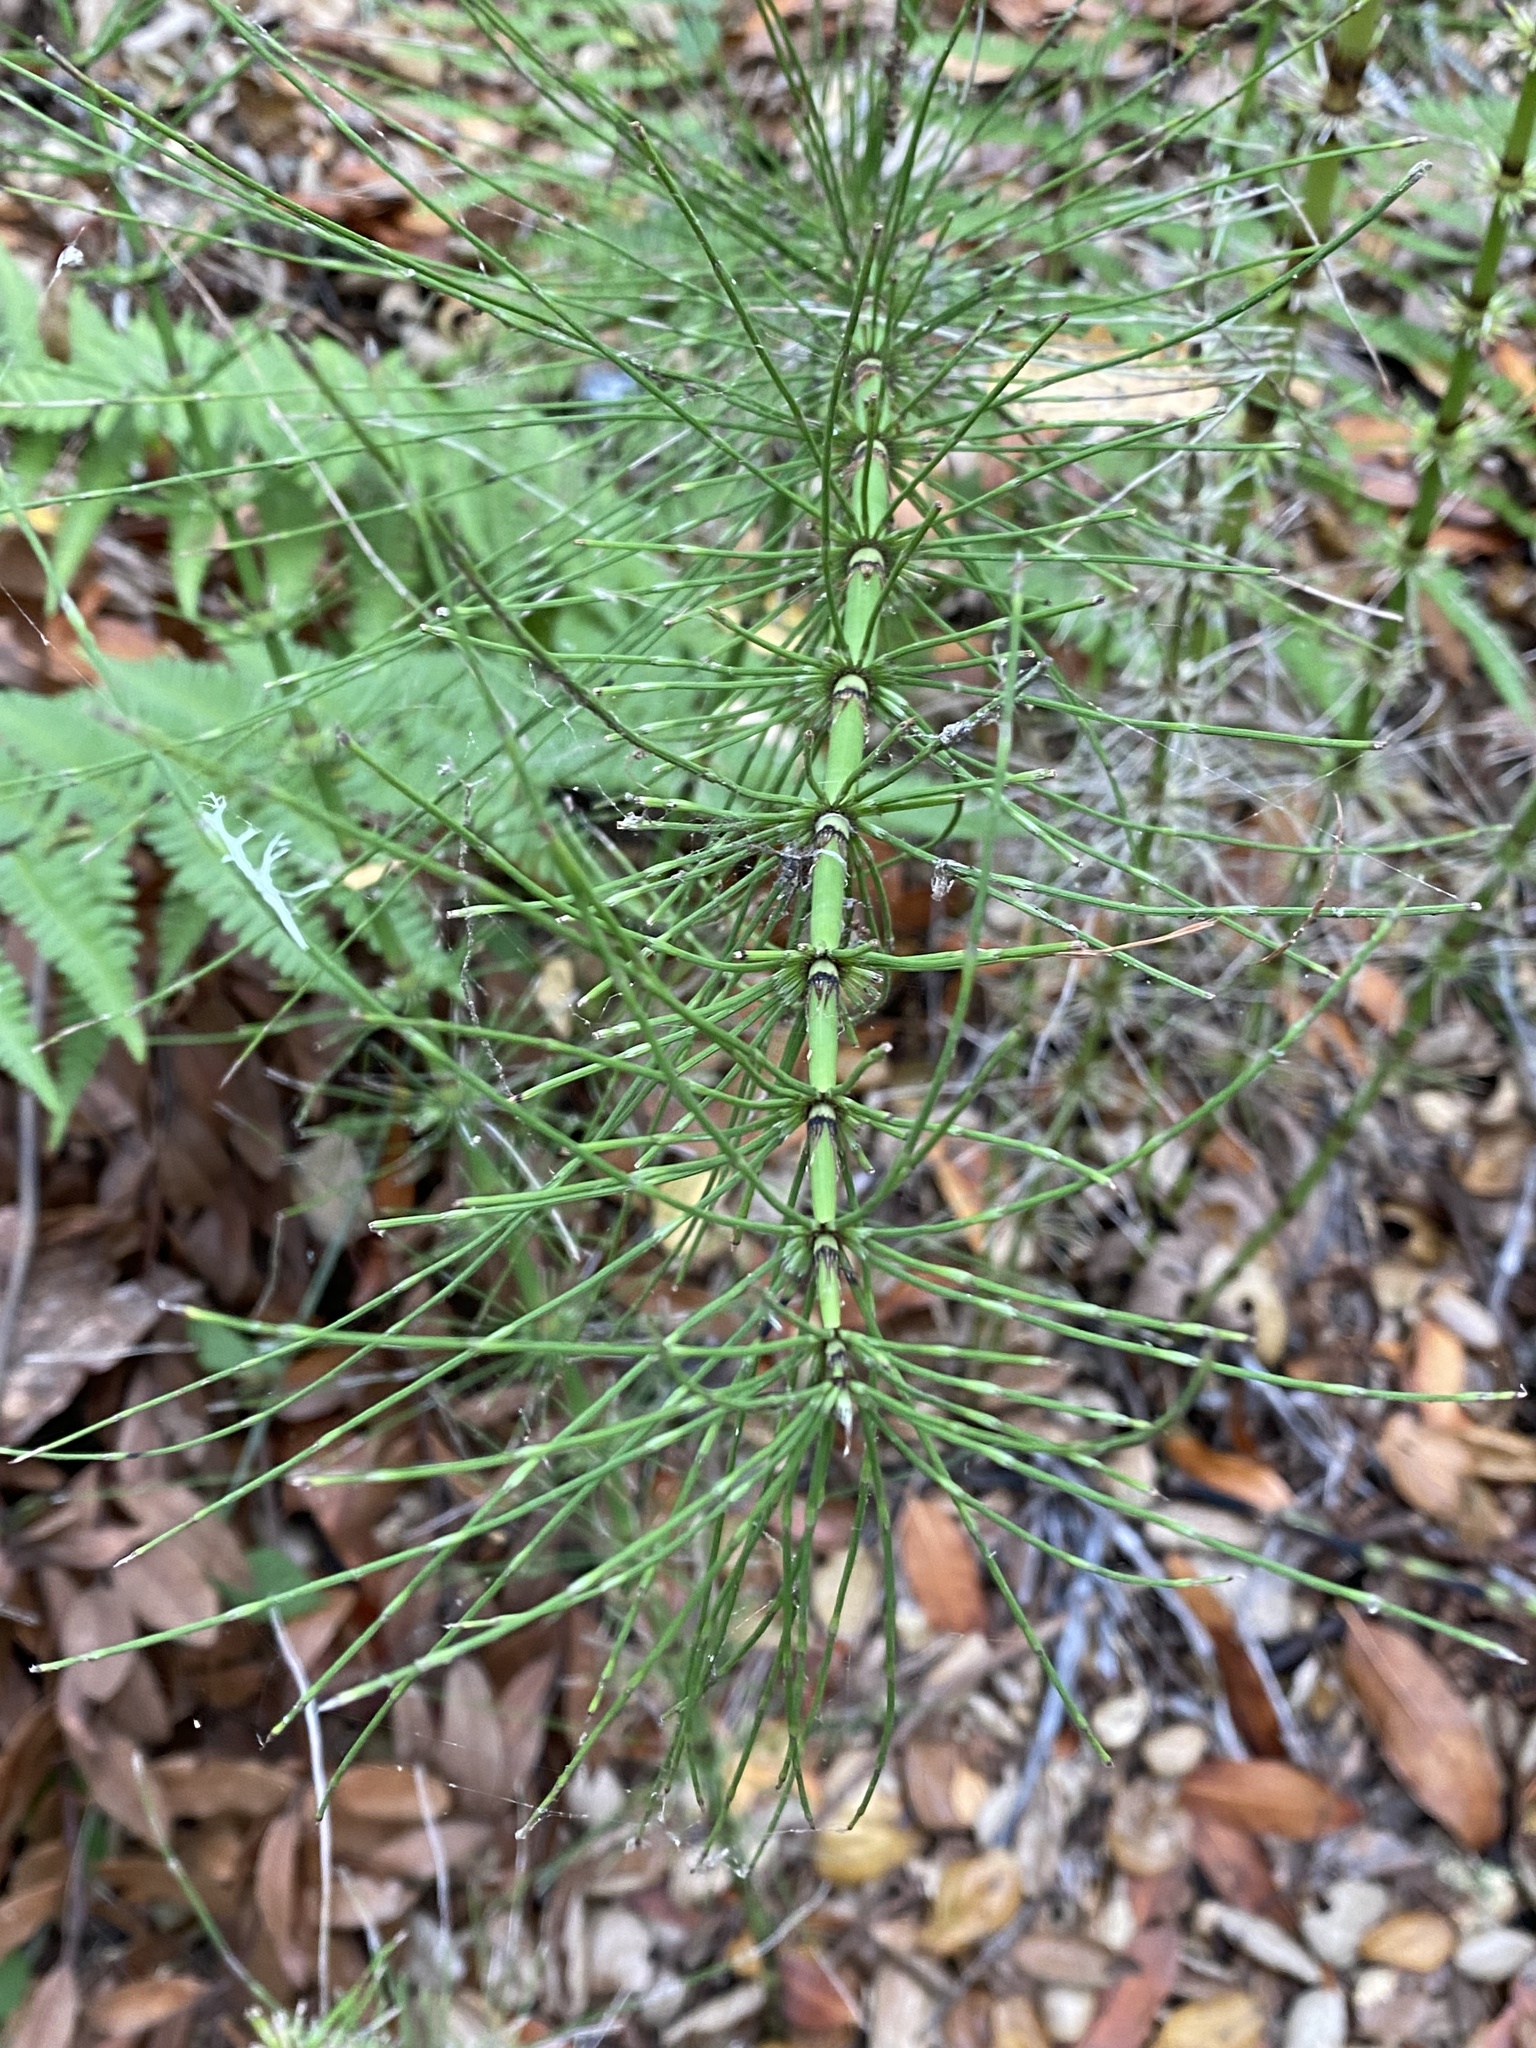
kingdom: Plantae
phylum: Tracheophyta
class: Polypodiopsida
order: Equisetales
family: Equisetaceae
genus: Equisetum
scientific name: Equisetum telmateia
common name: Great horsetail
